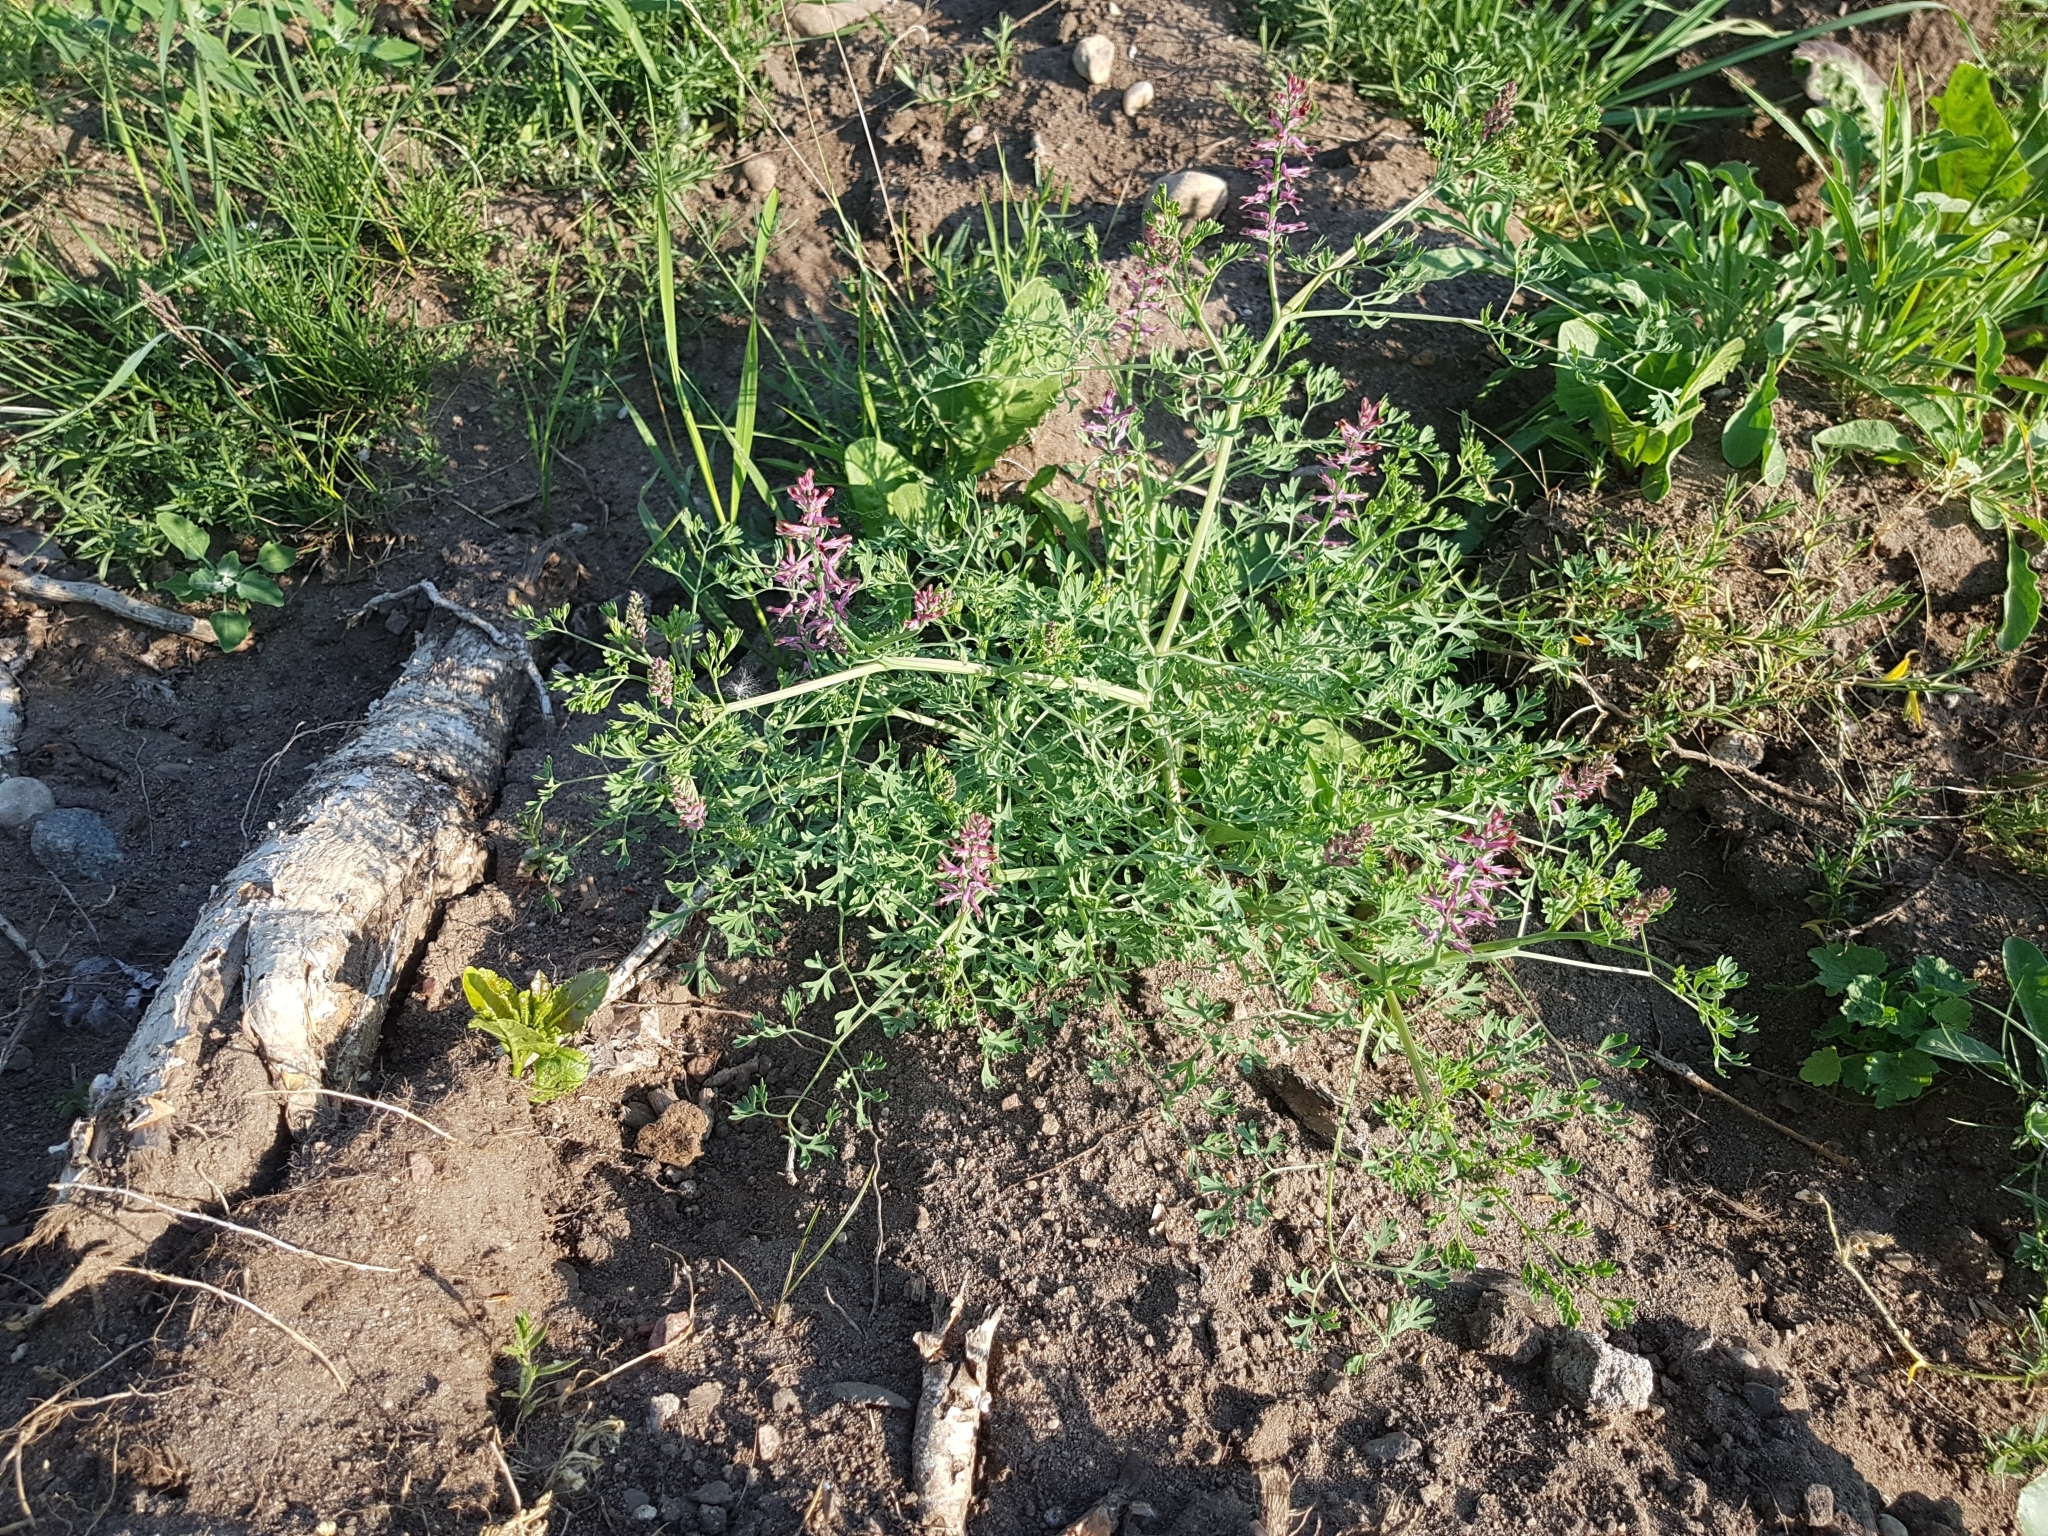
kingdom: Plantae
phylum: Tracheophyta
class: Magnoliopsida
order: Ranunculales
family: Papaveraceae
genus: Fumaria
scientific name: Fumaria officinalis
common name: Common fumitory
